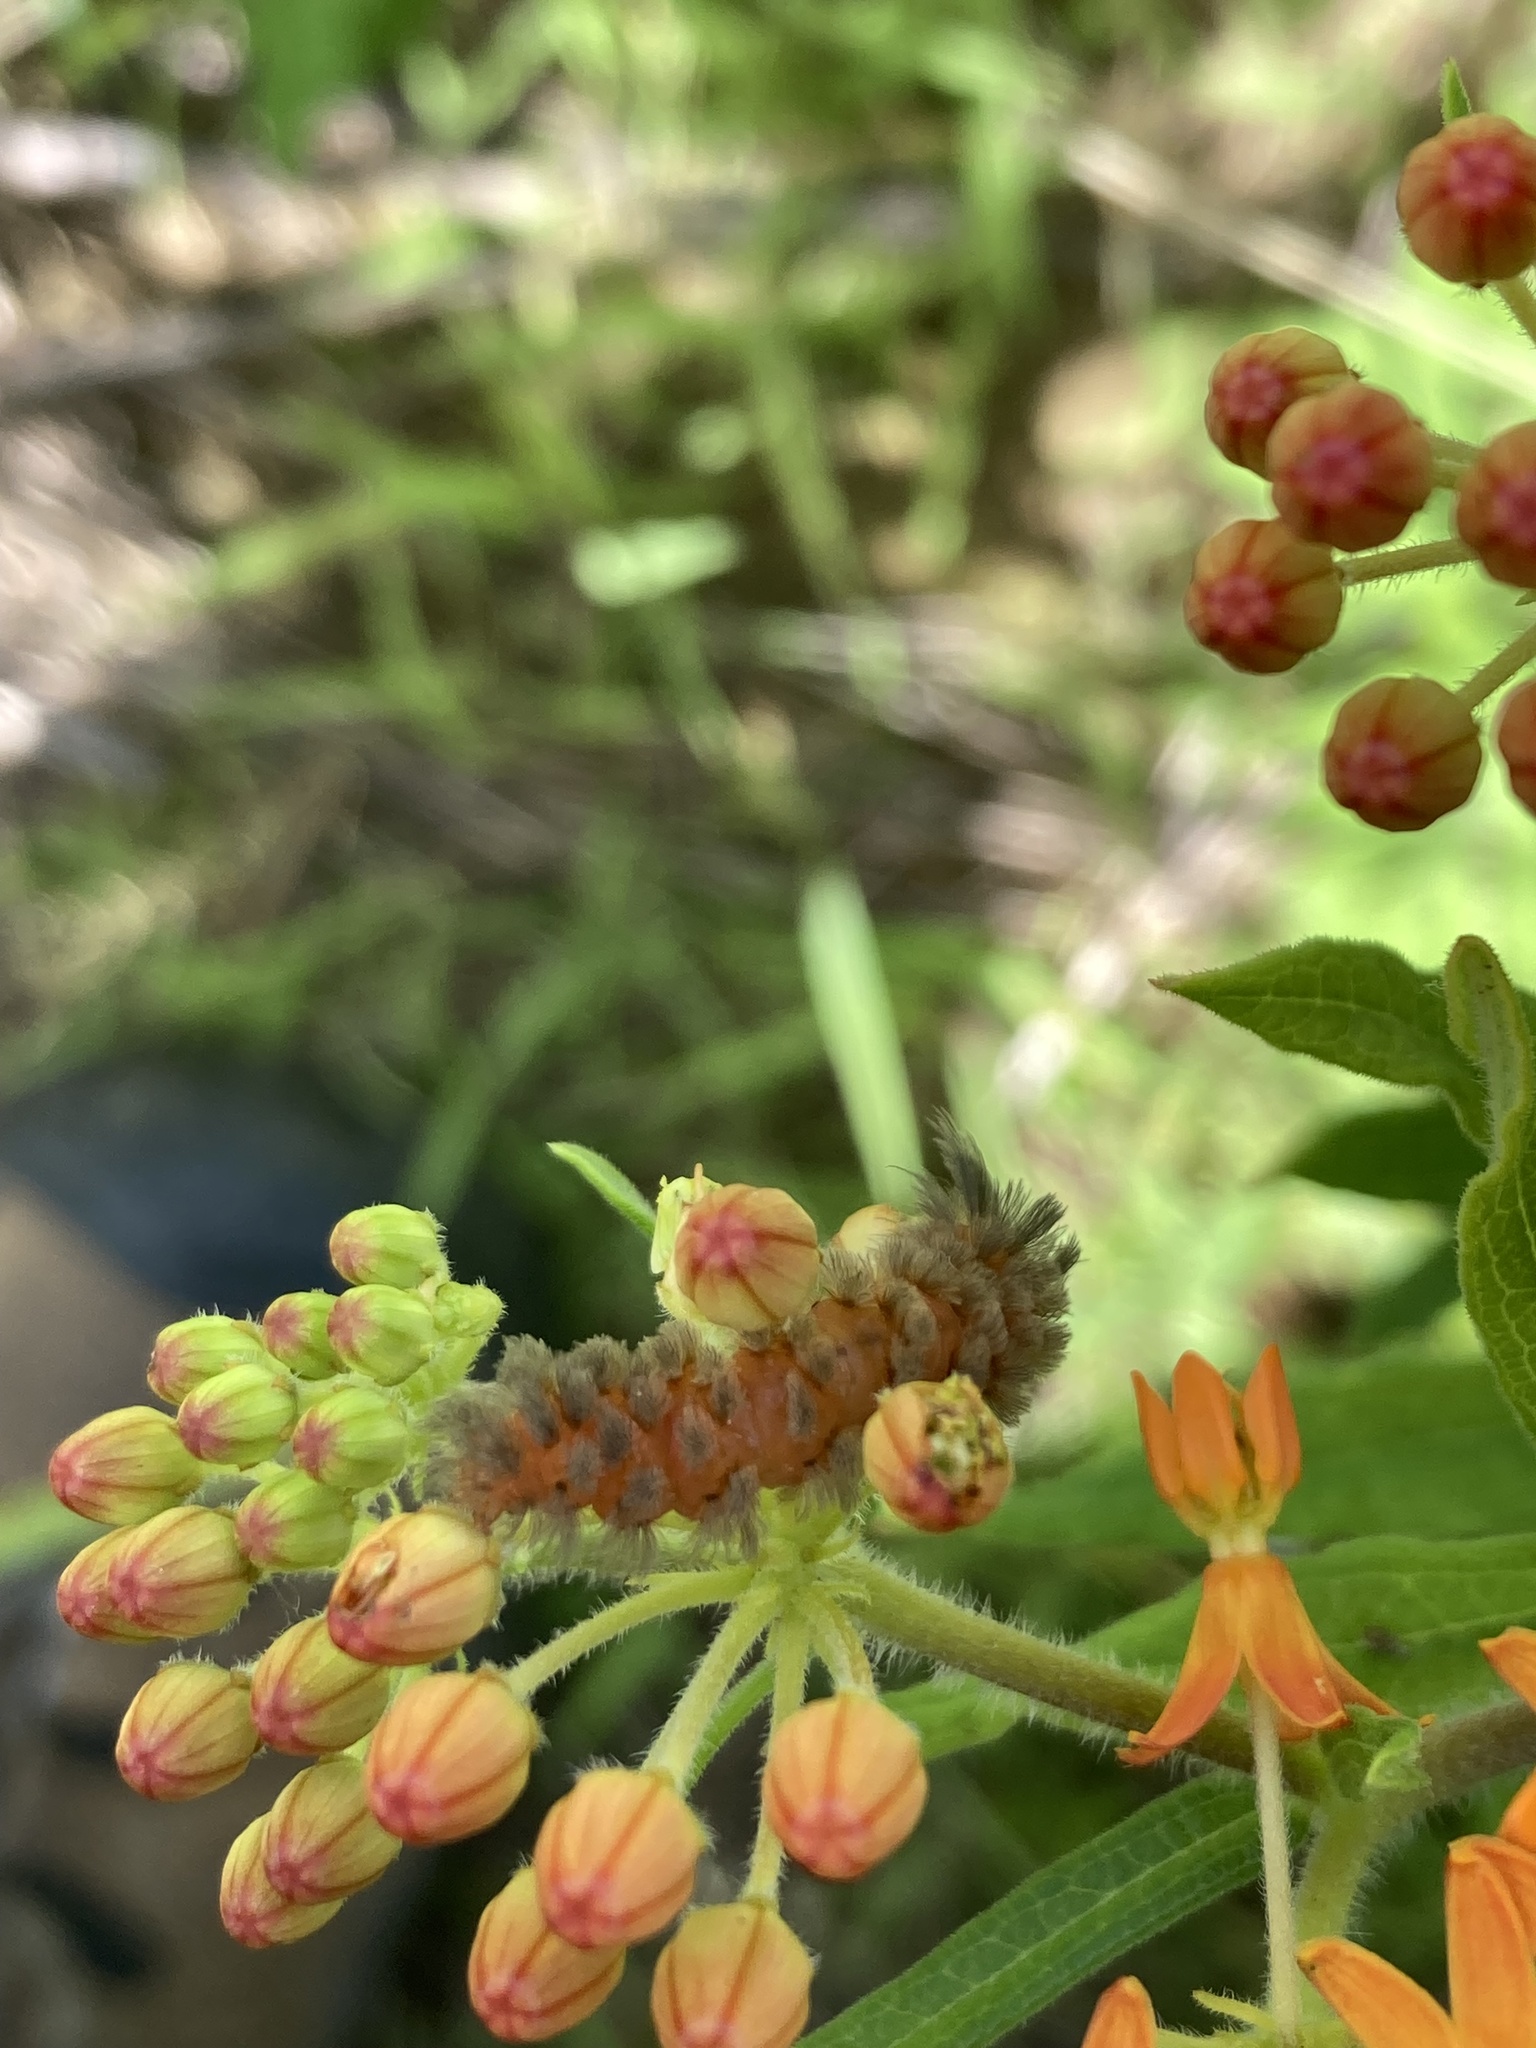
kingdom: Animalia
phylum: Arthropoda
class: Insecta
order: Lepidoptera
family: Erebidae
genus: Cycnia
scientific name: Cycnia collaris
